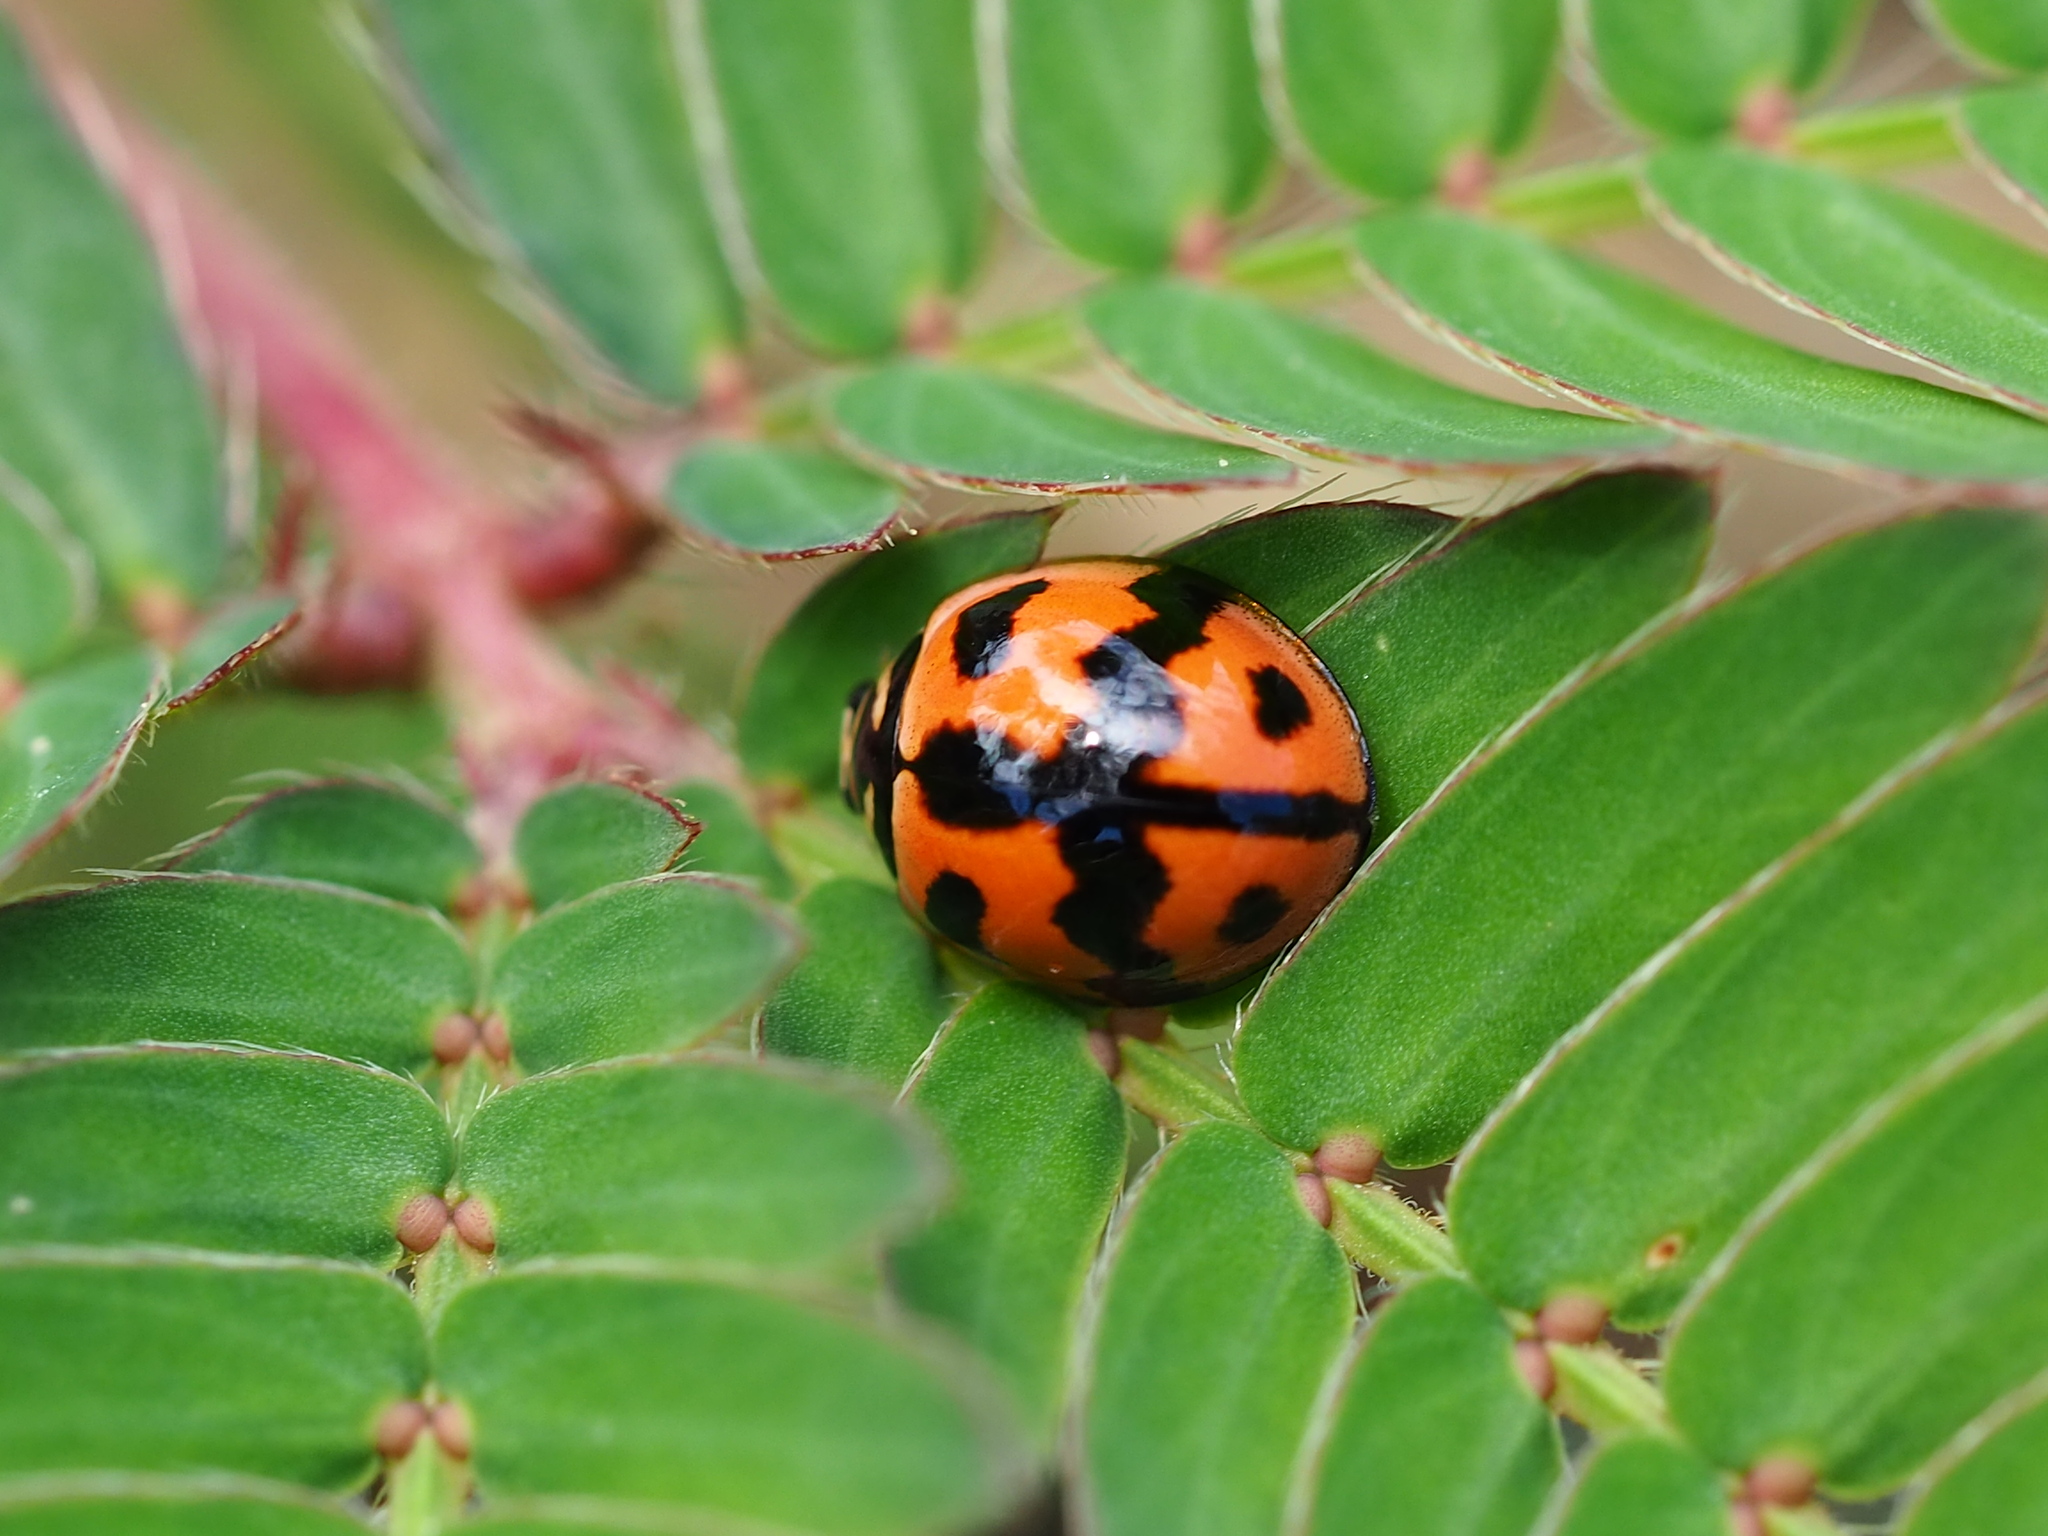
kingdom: Animalia
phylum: Arthropoda
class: Insecta
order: Coleoptera
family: Coccinellidae
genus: Cheilomenes
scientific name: Cheilomenes sexmaculata
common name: Ladybird beetle
